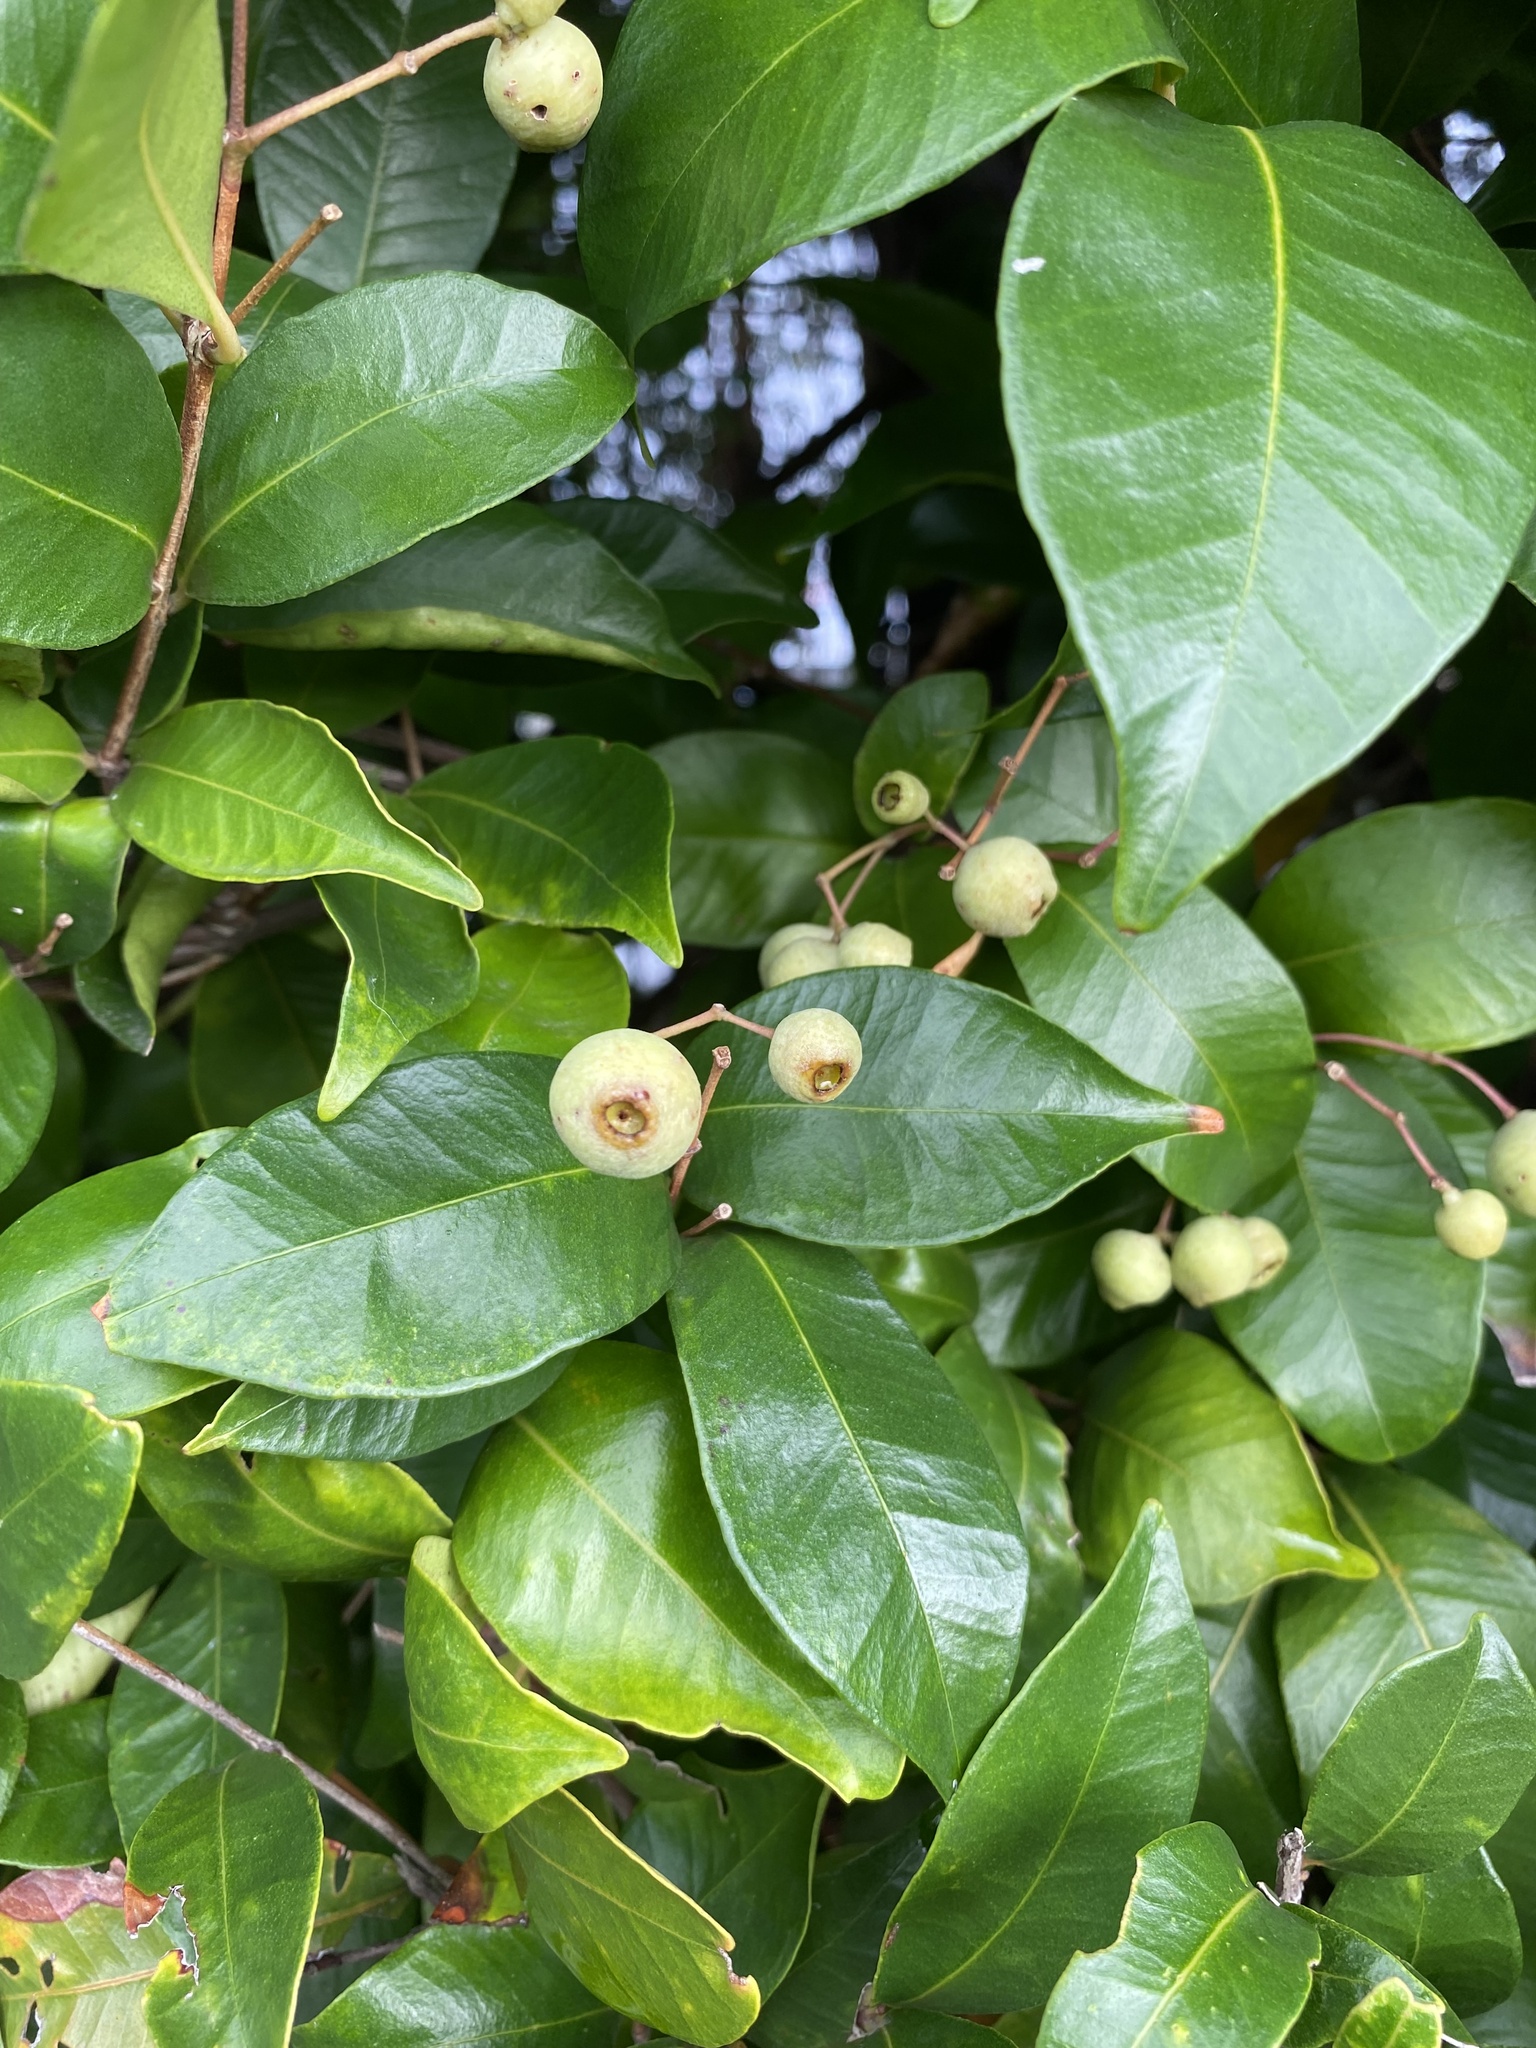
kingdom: Plantae
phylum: Tracheophyta
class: Magnoliopsida
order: Myrtales
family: Myrtaceae
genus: Syzygium
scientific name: Syzygium smithii
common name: Lilly-pilly
